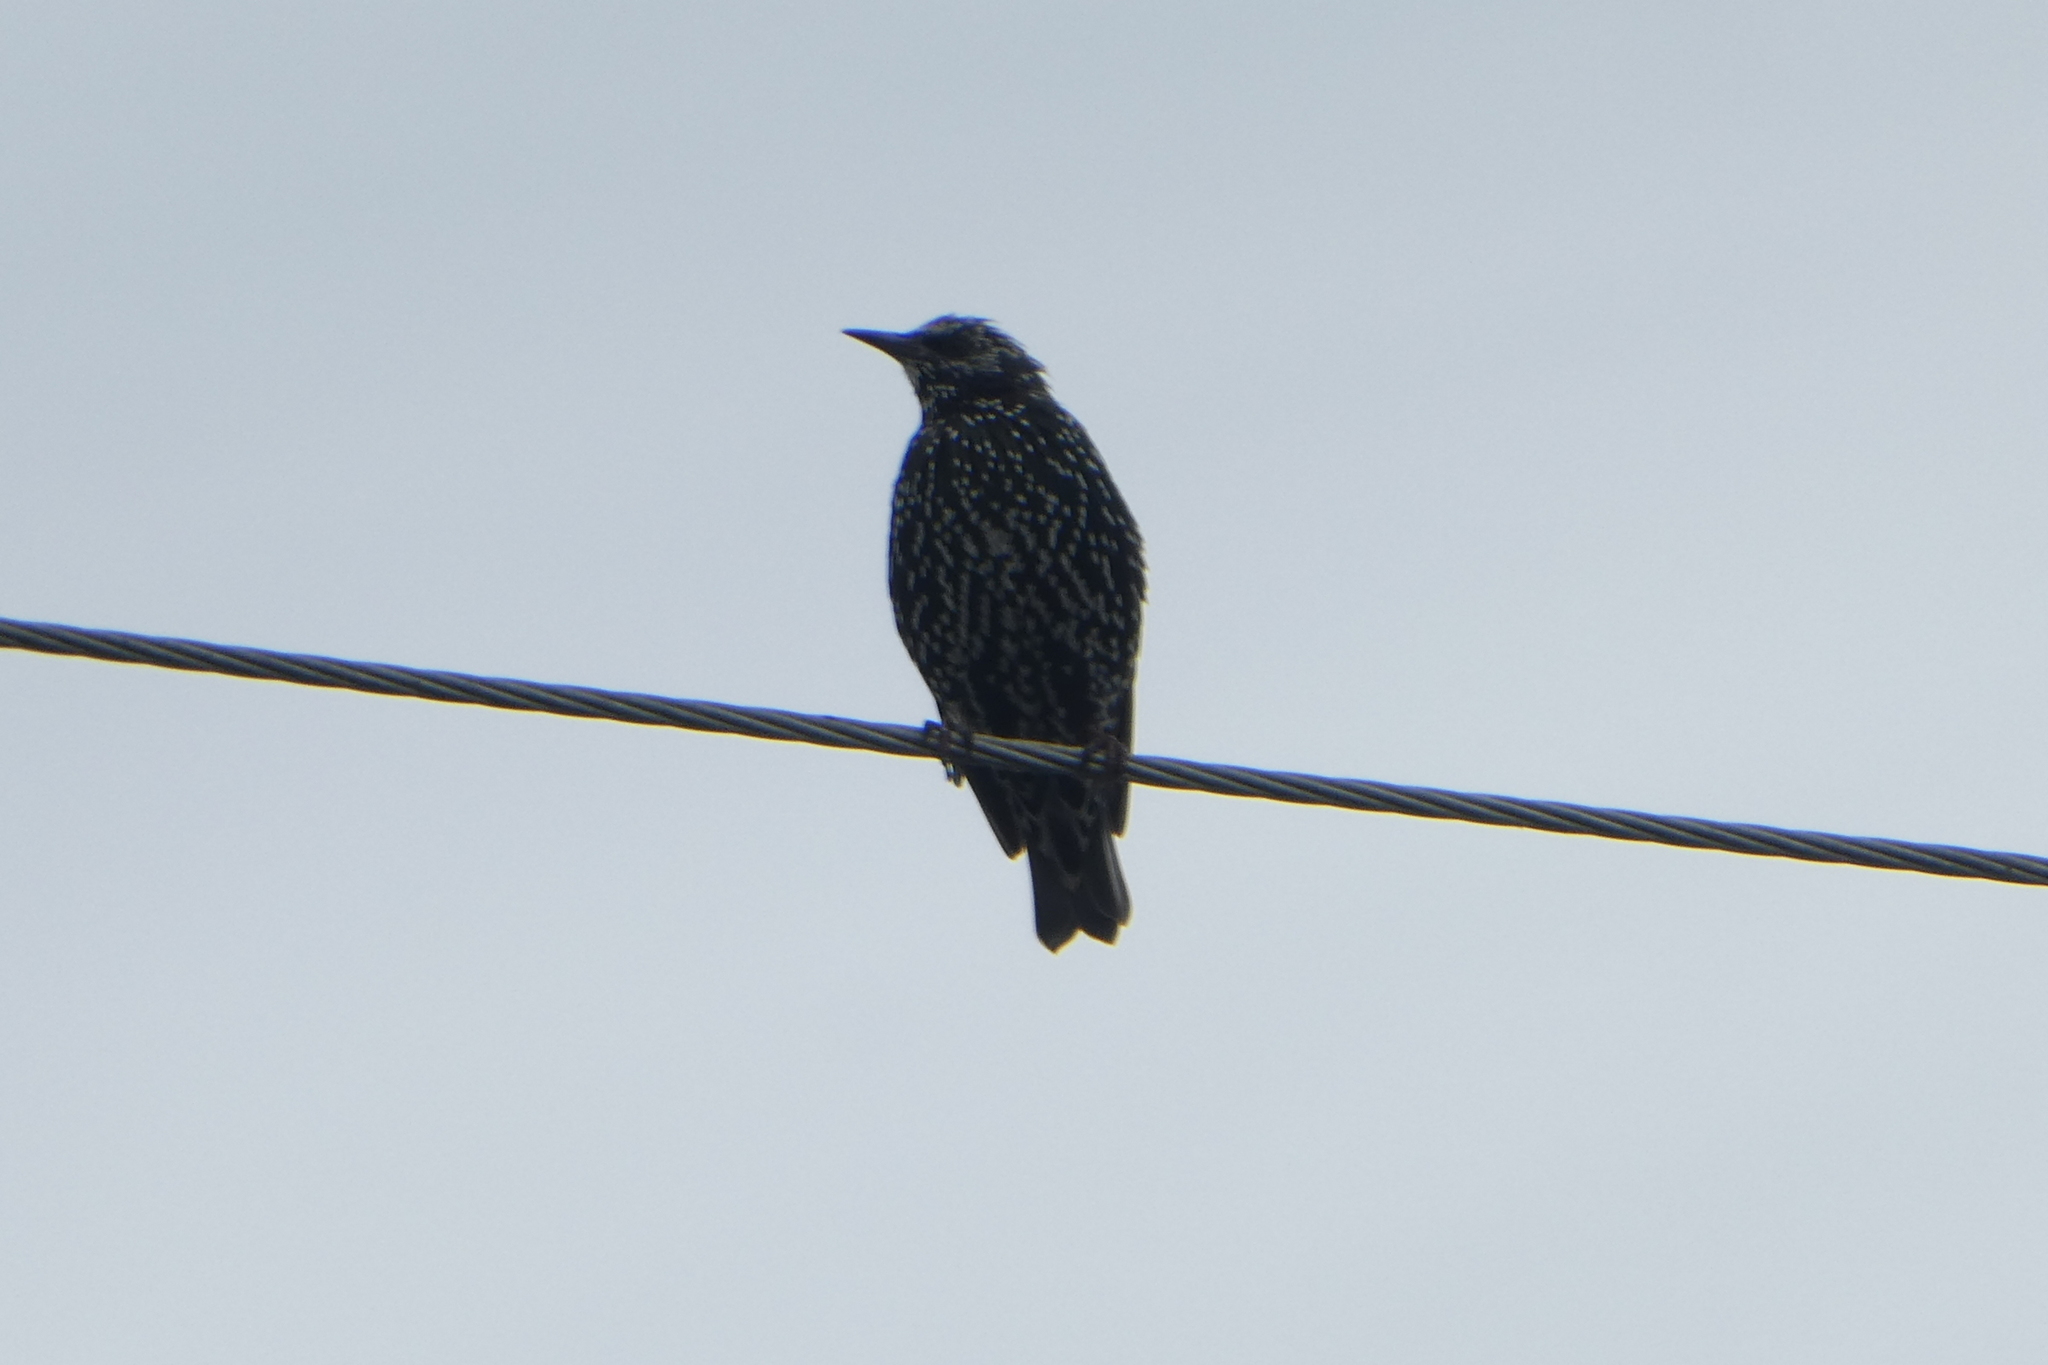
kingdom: Animalia
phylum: Chordata
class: Aves
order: Passeriformes
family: Sturnidae
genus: Sturnus
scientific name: Sturnus vulgaris
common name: Common starling
